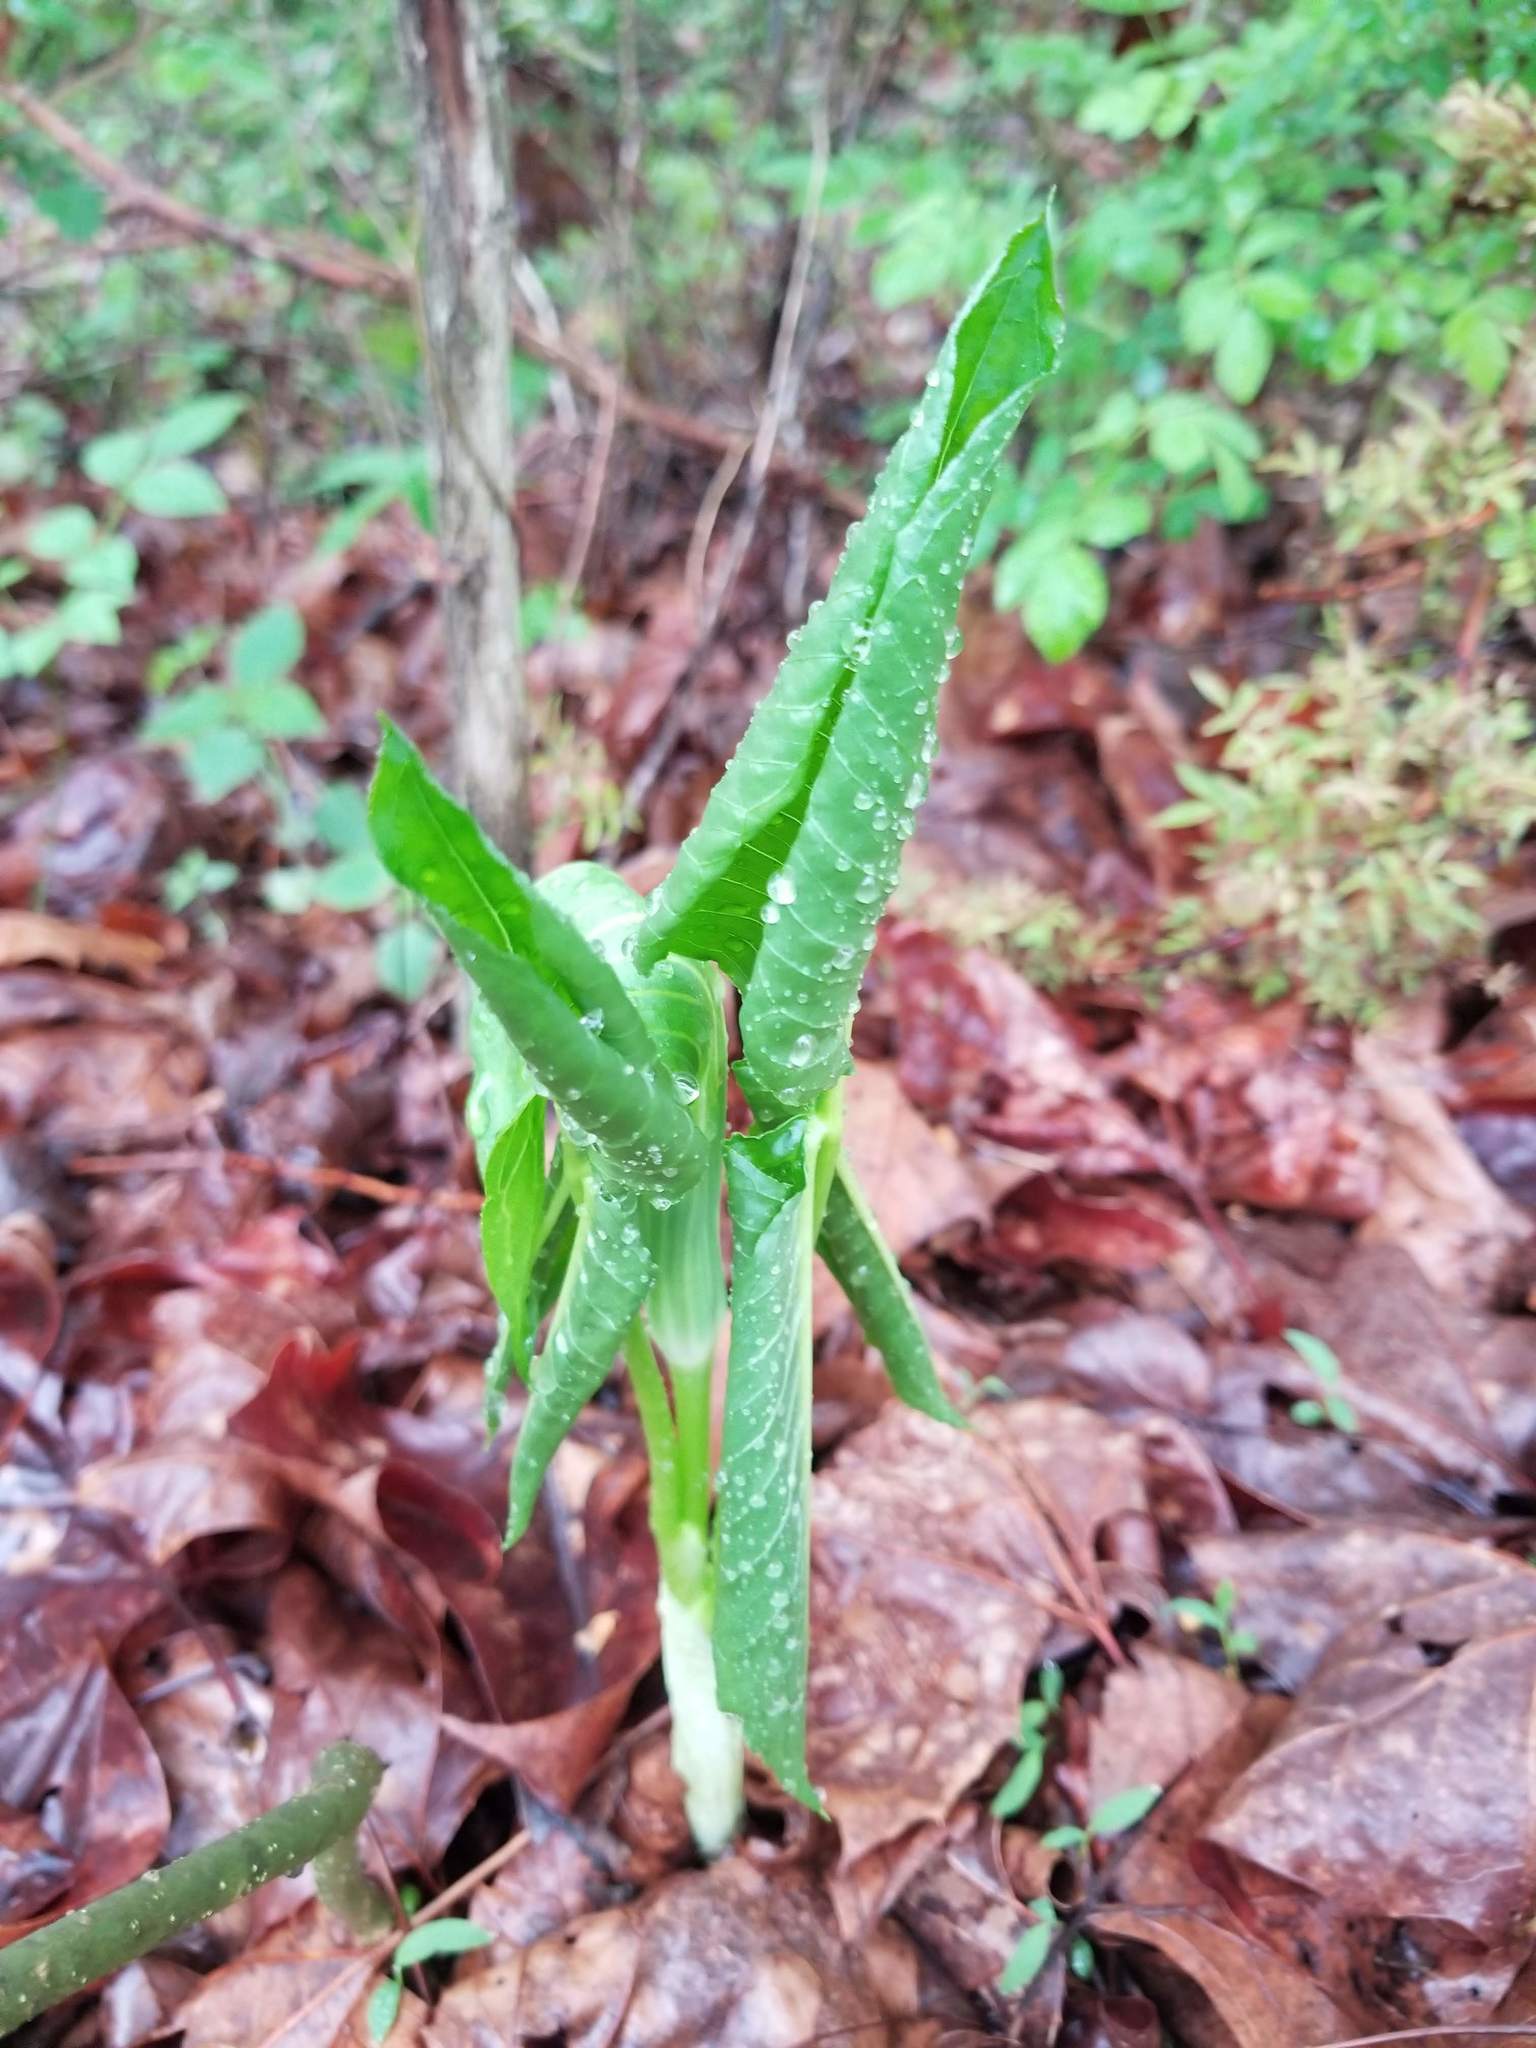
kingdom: Plantae
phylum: Tracheophyta
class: Liliopsida
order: Alismatales
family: Araceae
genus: Arisaema
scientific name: Arisaema triphyllum
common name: Jack-in-the-pulpit
